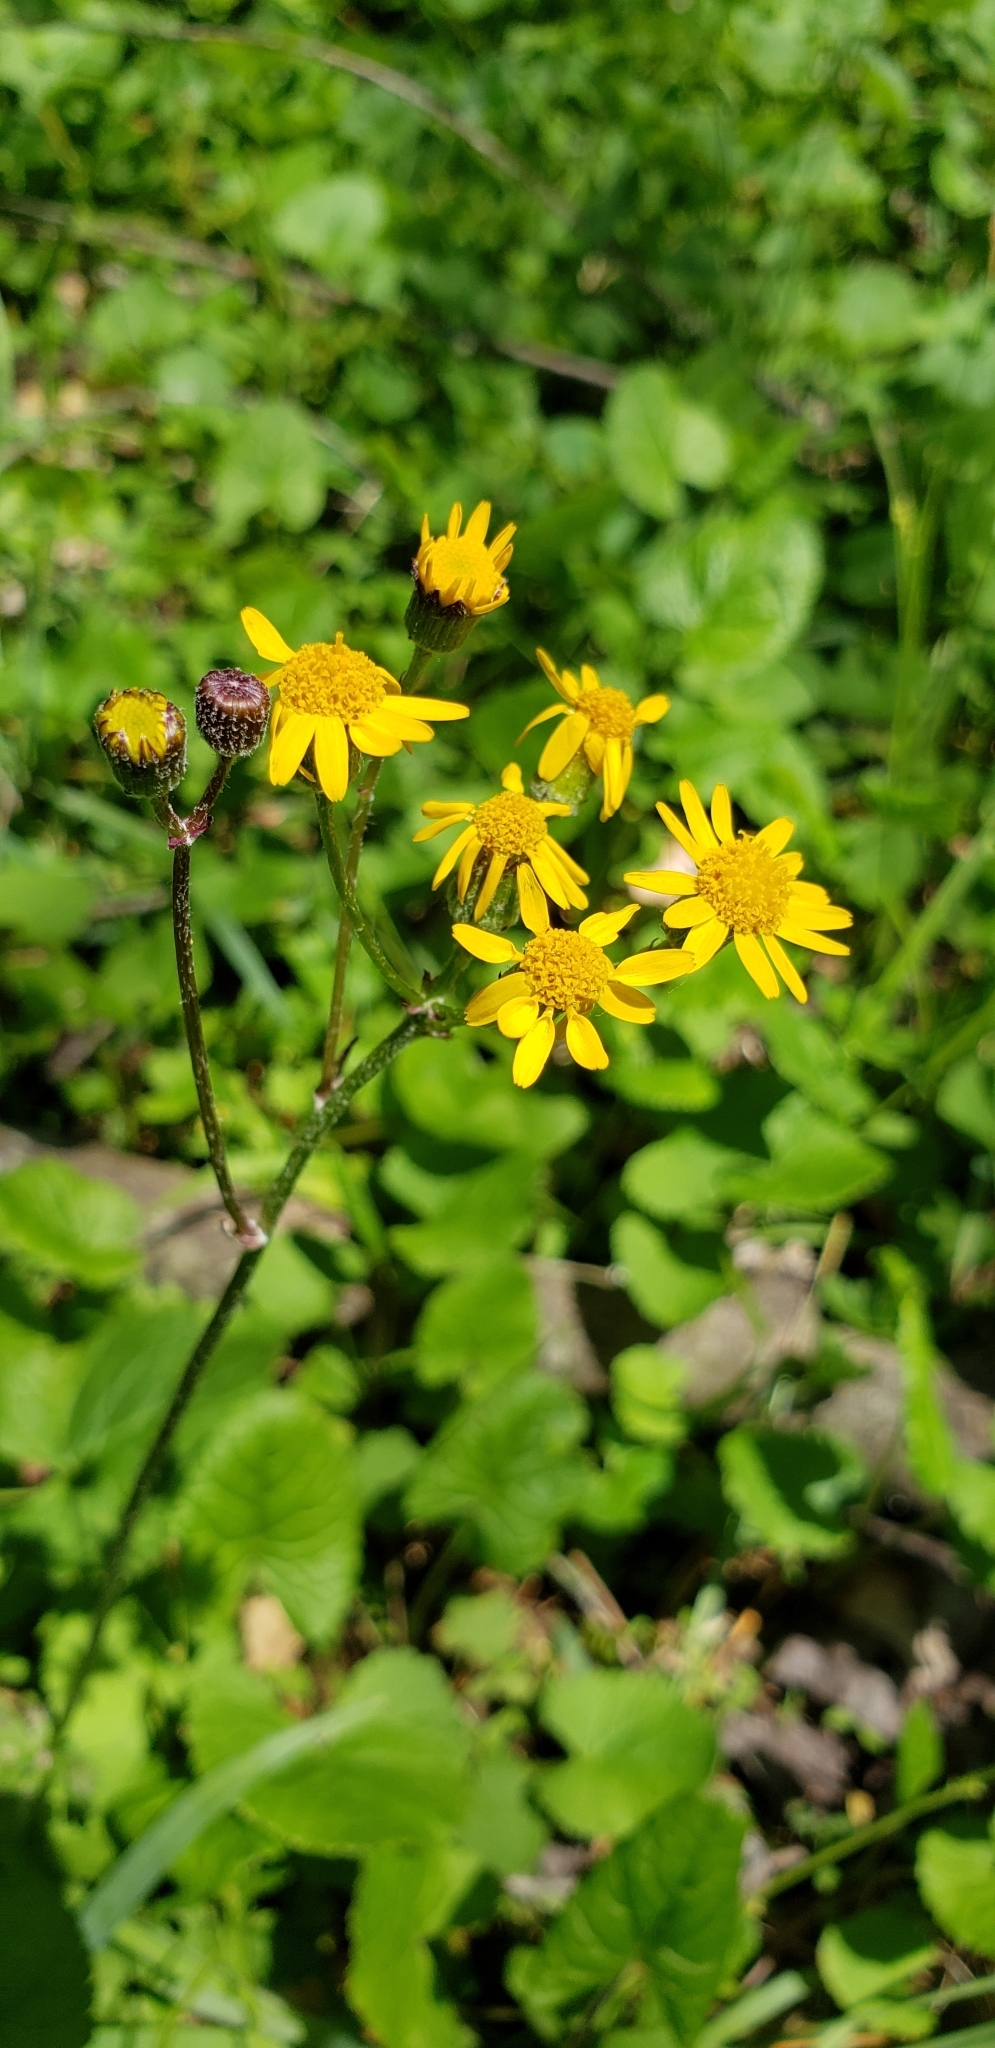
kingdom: Plantae
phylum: Tracheophyta
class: Magnoliopsida
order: Asterales
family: Asteraceae
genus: Packera
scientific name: Packera aurea
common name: Golden groundsel
